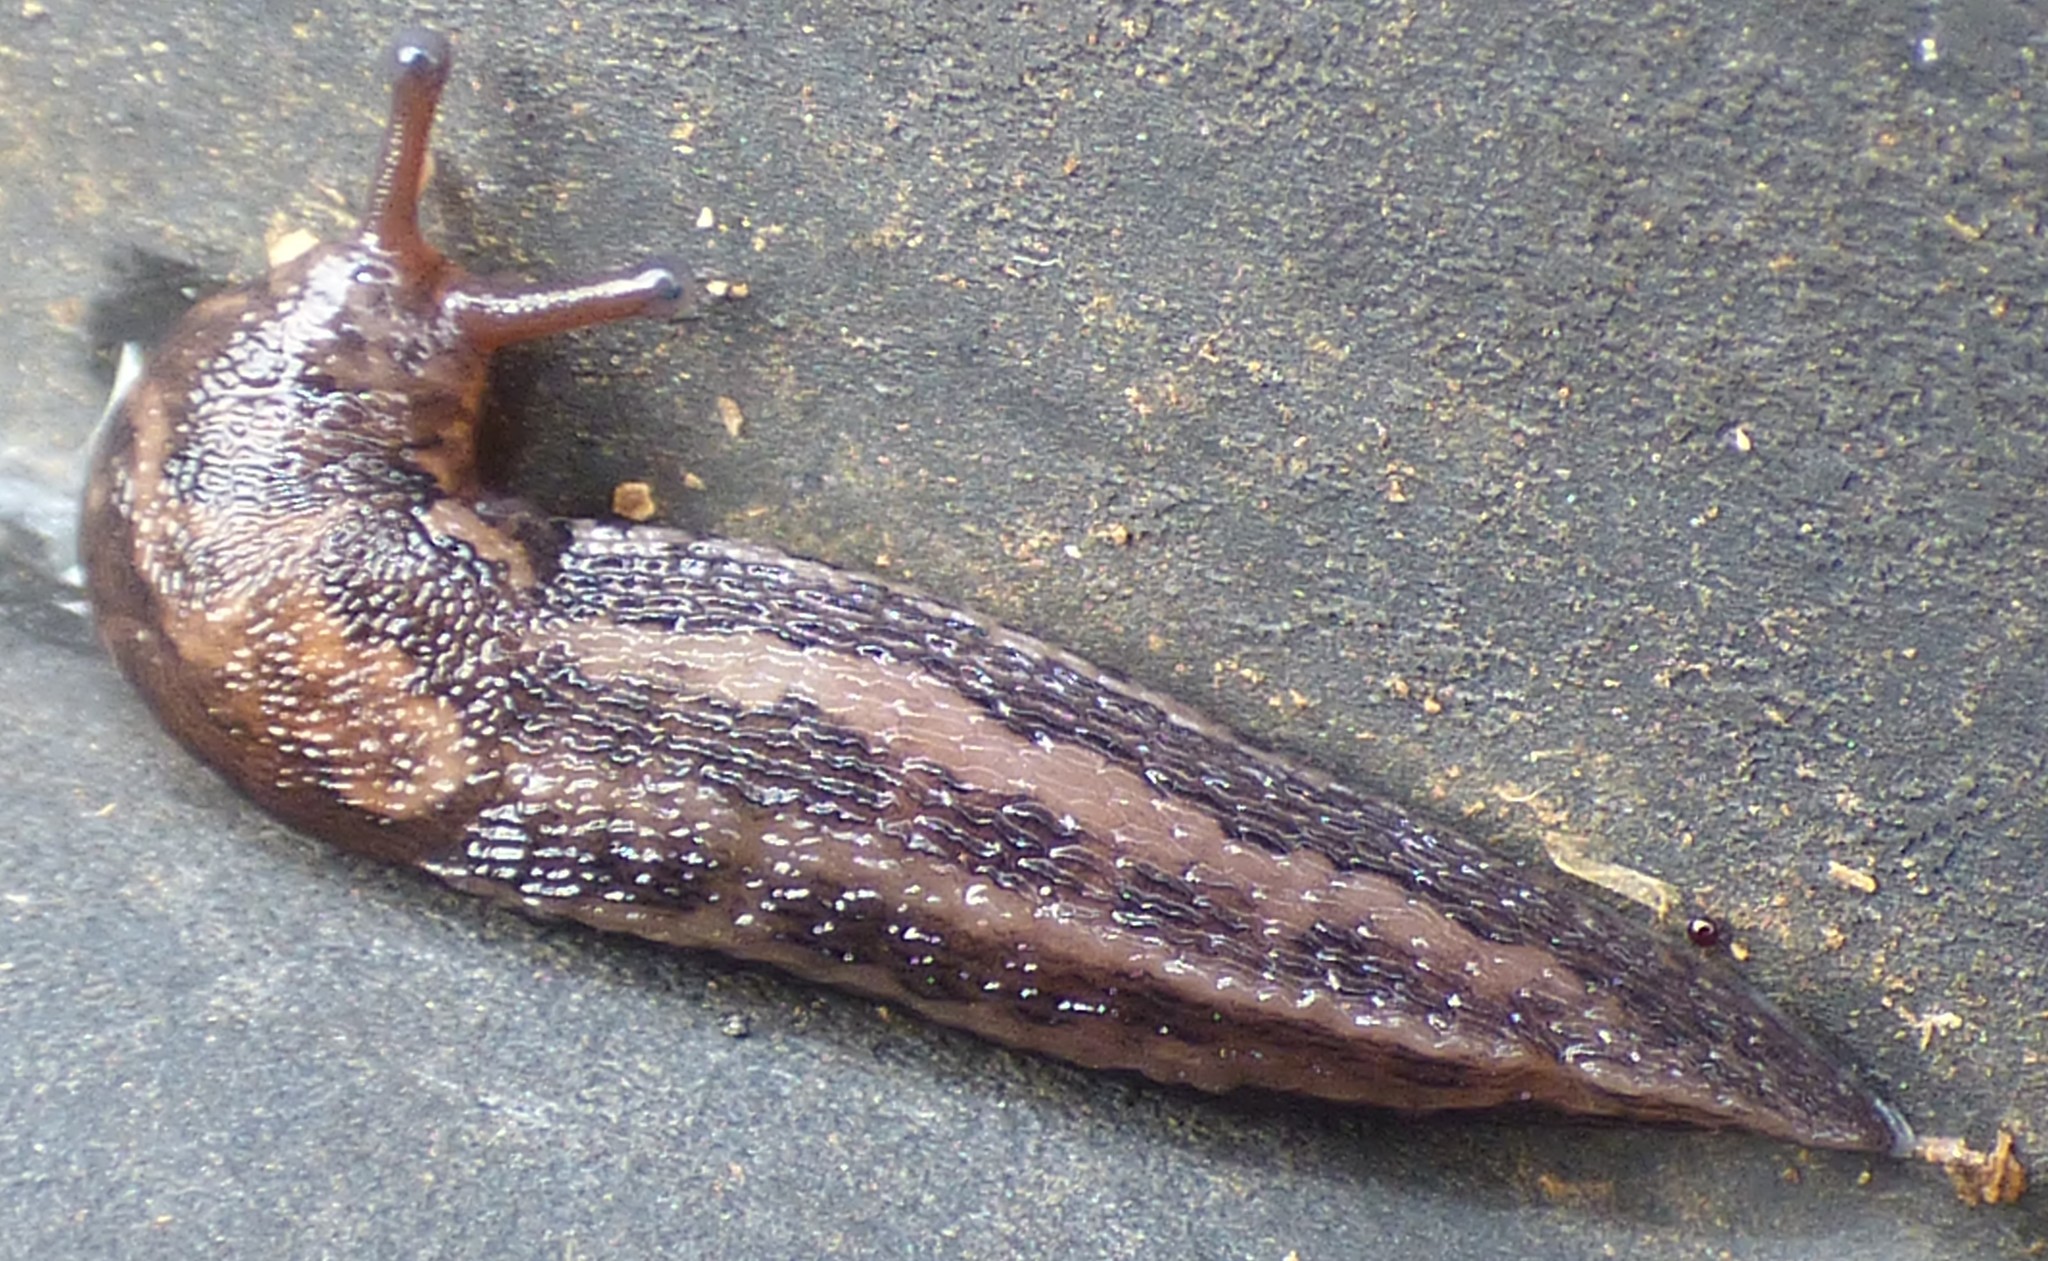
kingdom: Animalia
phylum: Mollusca
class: Gastropoda
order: Stylommatophora
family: Limacidae
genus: Limax
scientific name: Limax maximus
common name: Great grey slug
